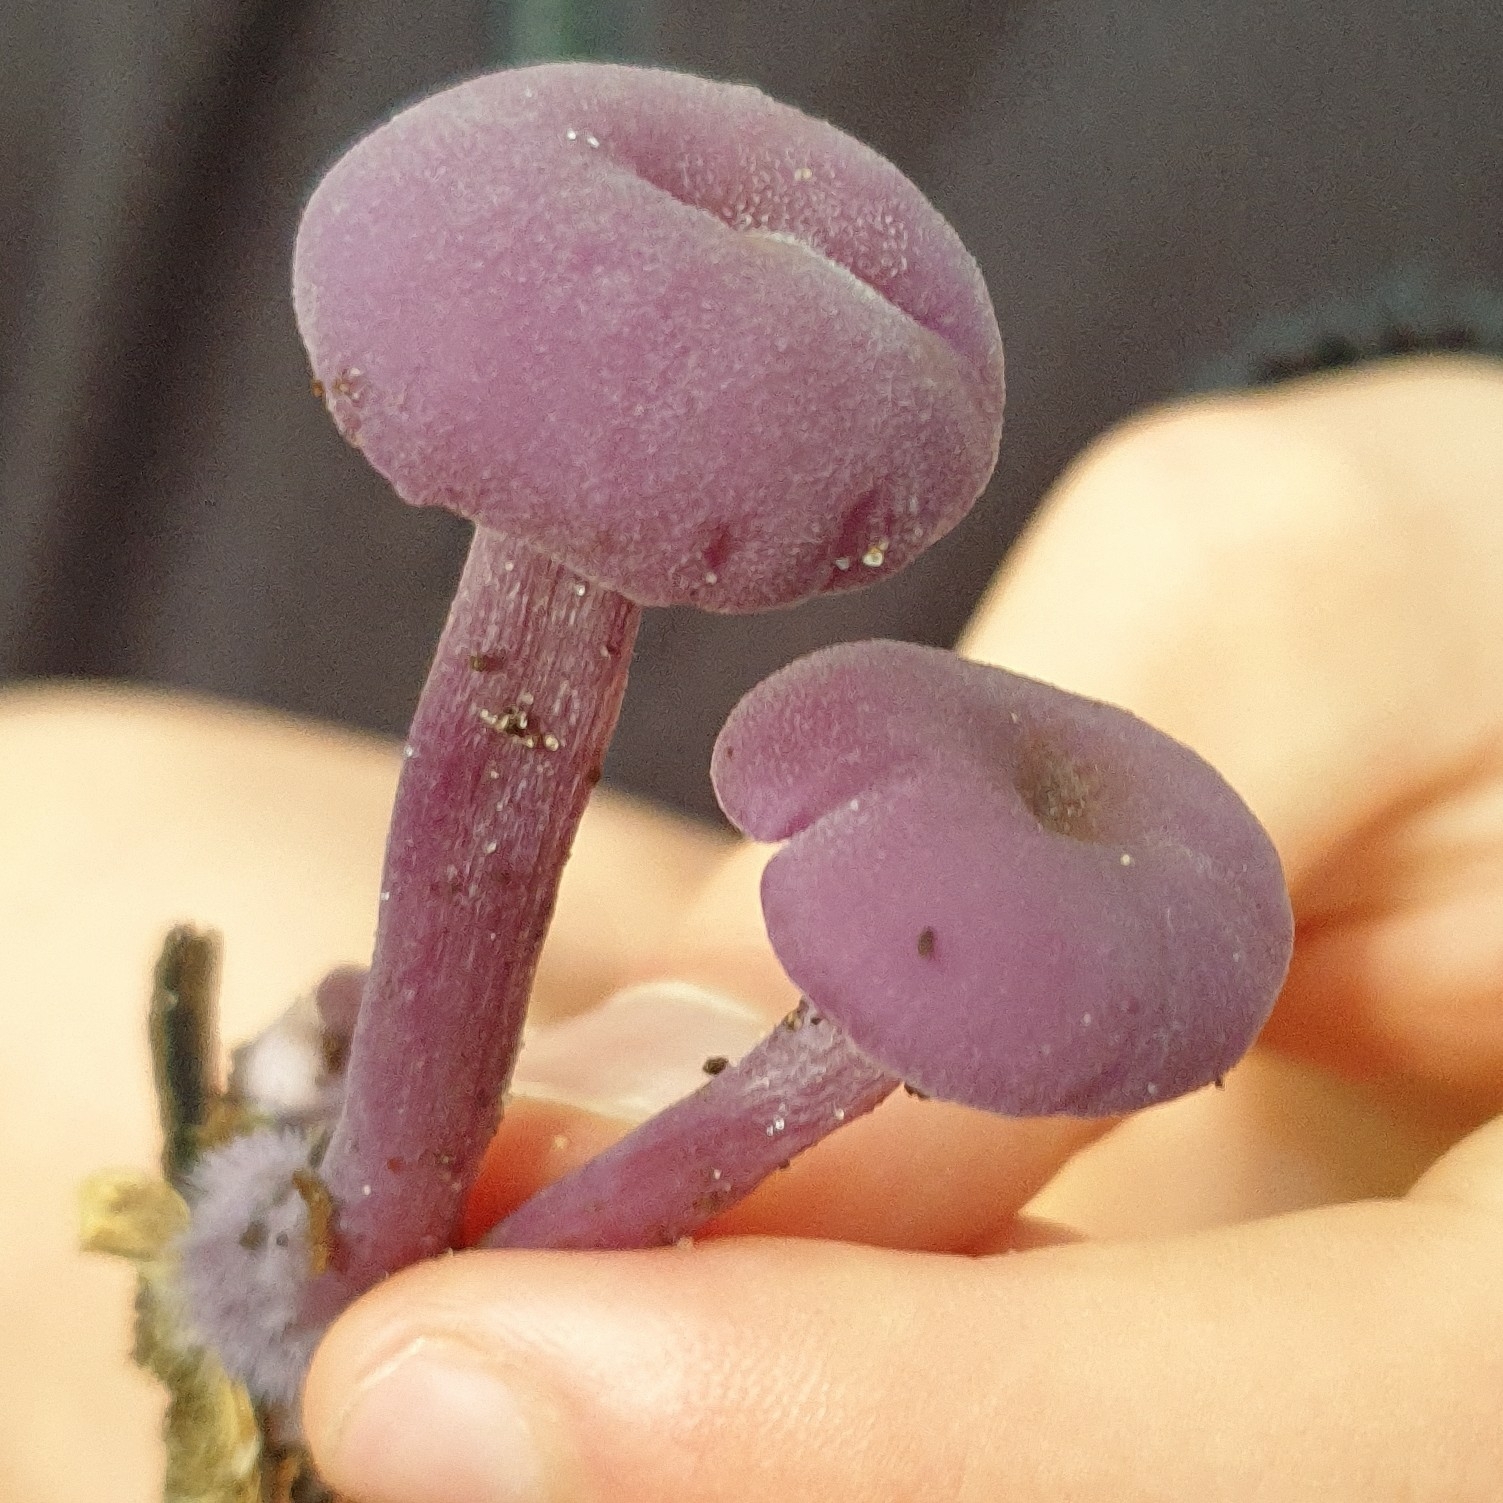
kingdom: Fungi
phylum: Basidiomycota
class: Agaricomycetes
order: Agaricales
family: Hydnangiaceae
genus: Laccaria
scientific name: Laccaria amethystina
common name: Amethyst deceiver
